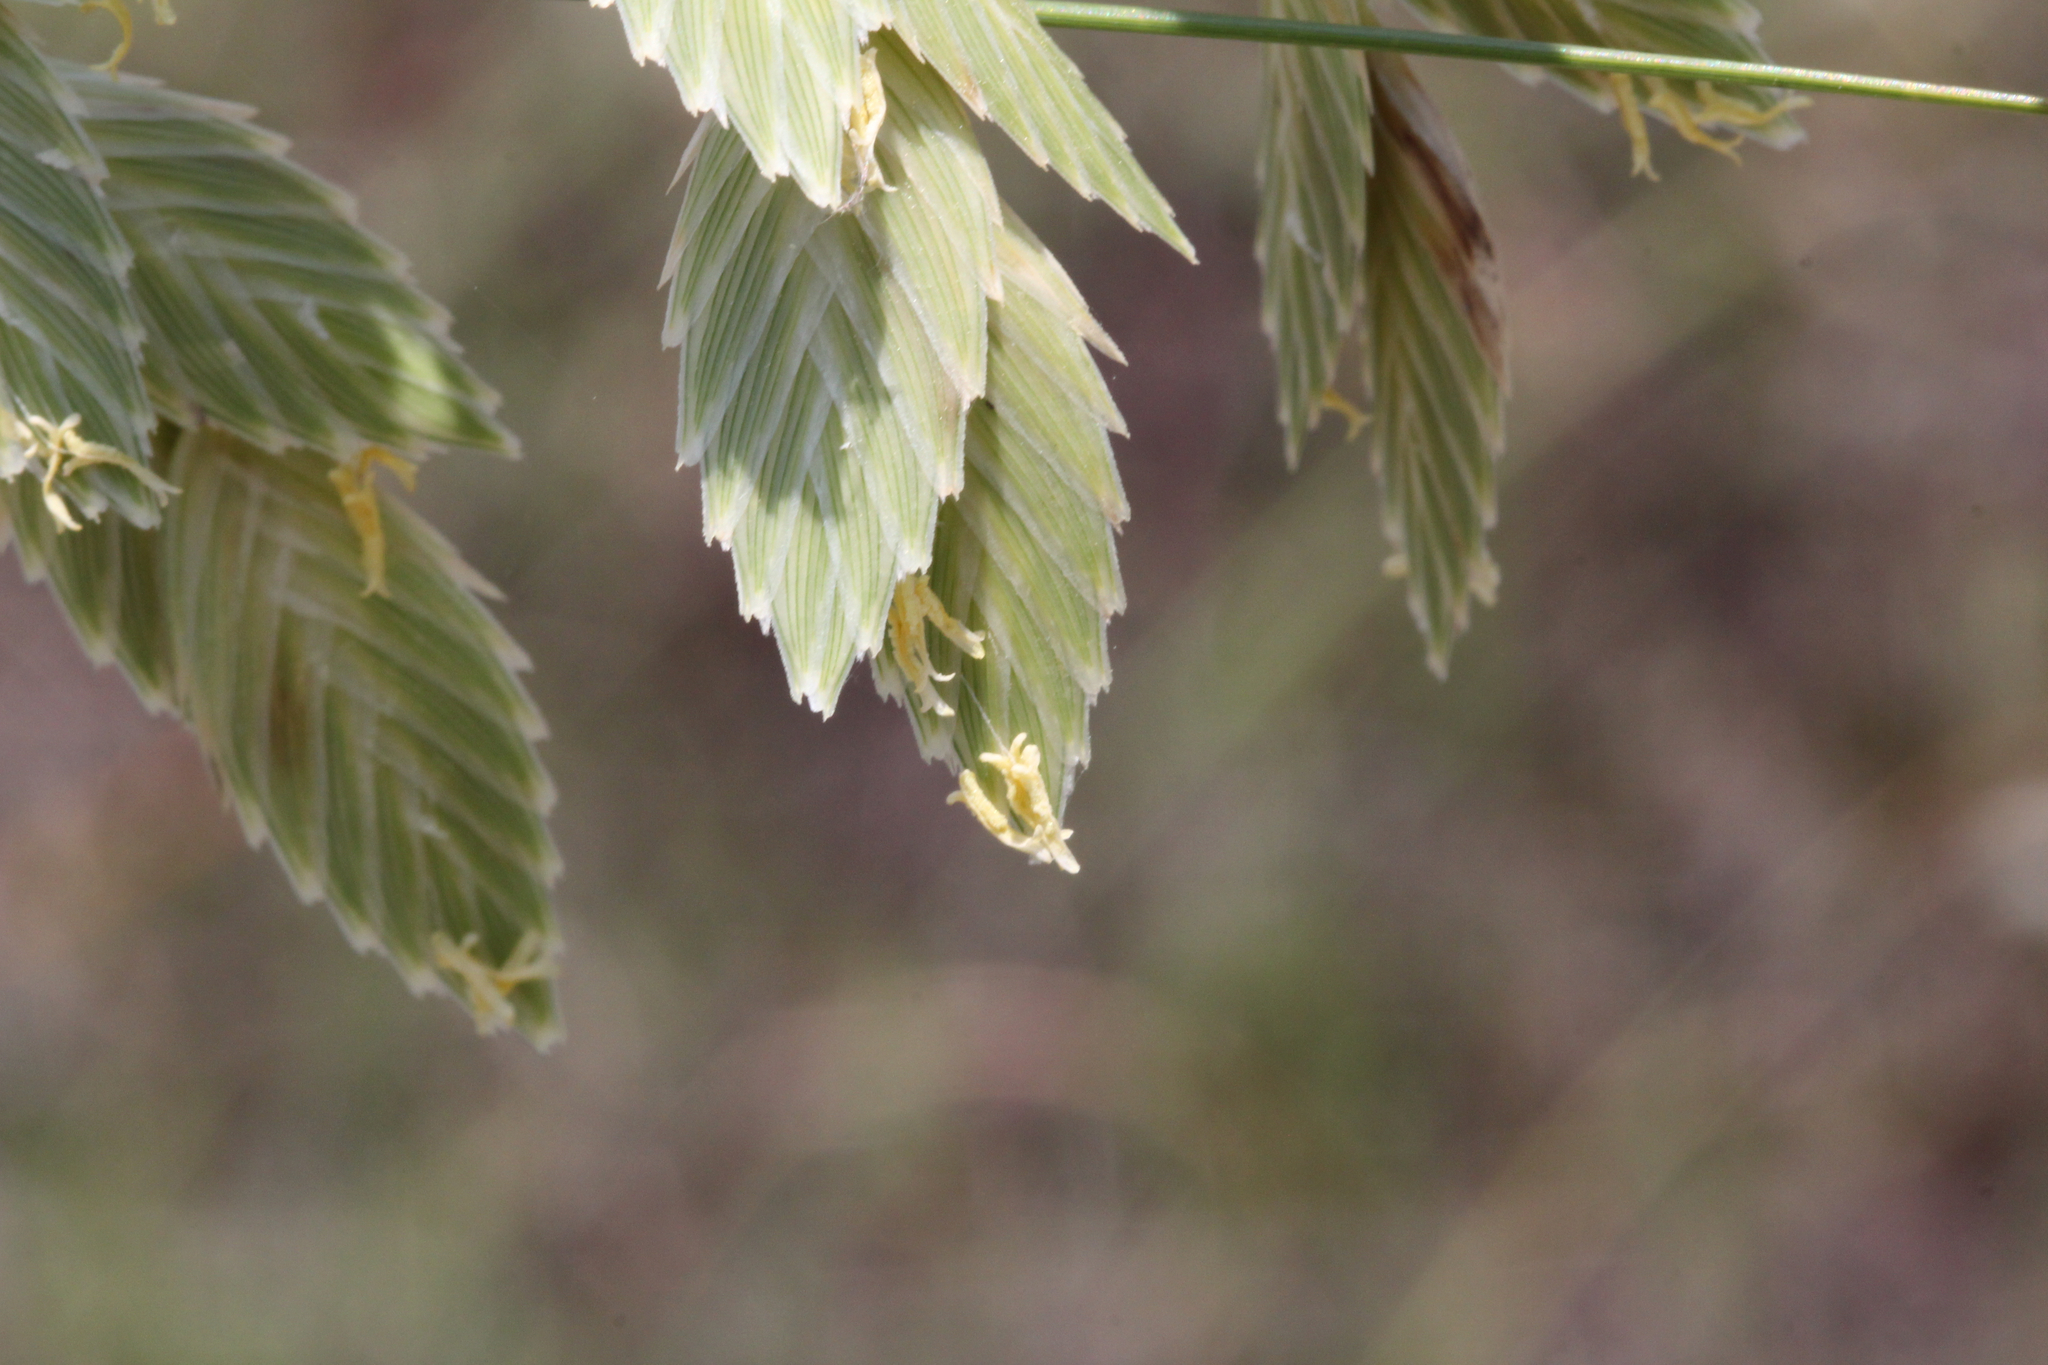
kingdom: Plantae
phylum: Tracheophyta
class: Liliopsida
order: Poales
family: Poaceae
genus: Uniola
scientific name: Uniola paniculata
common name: Seaside-oats
